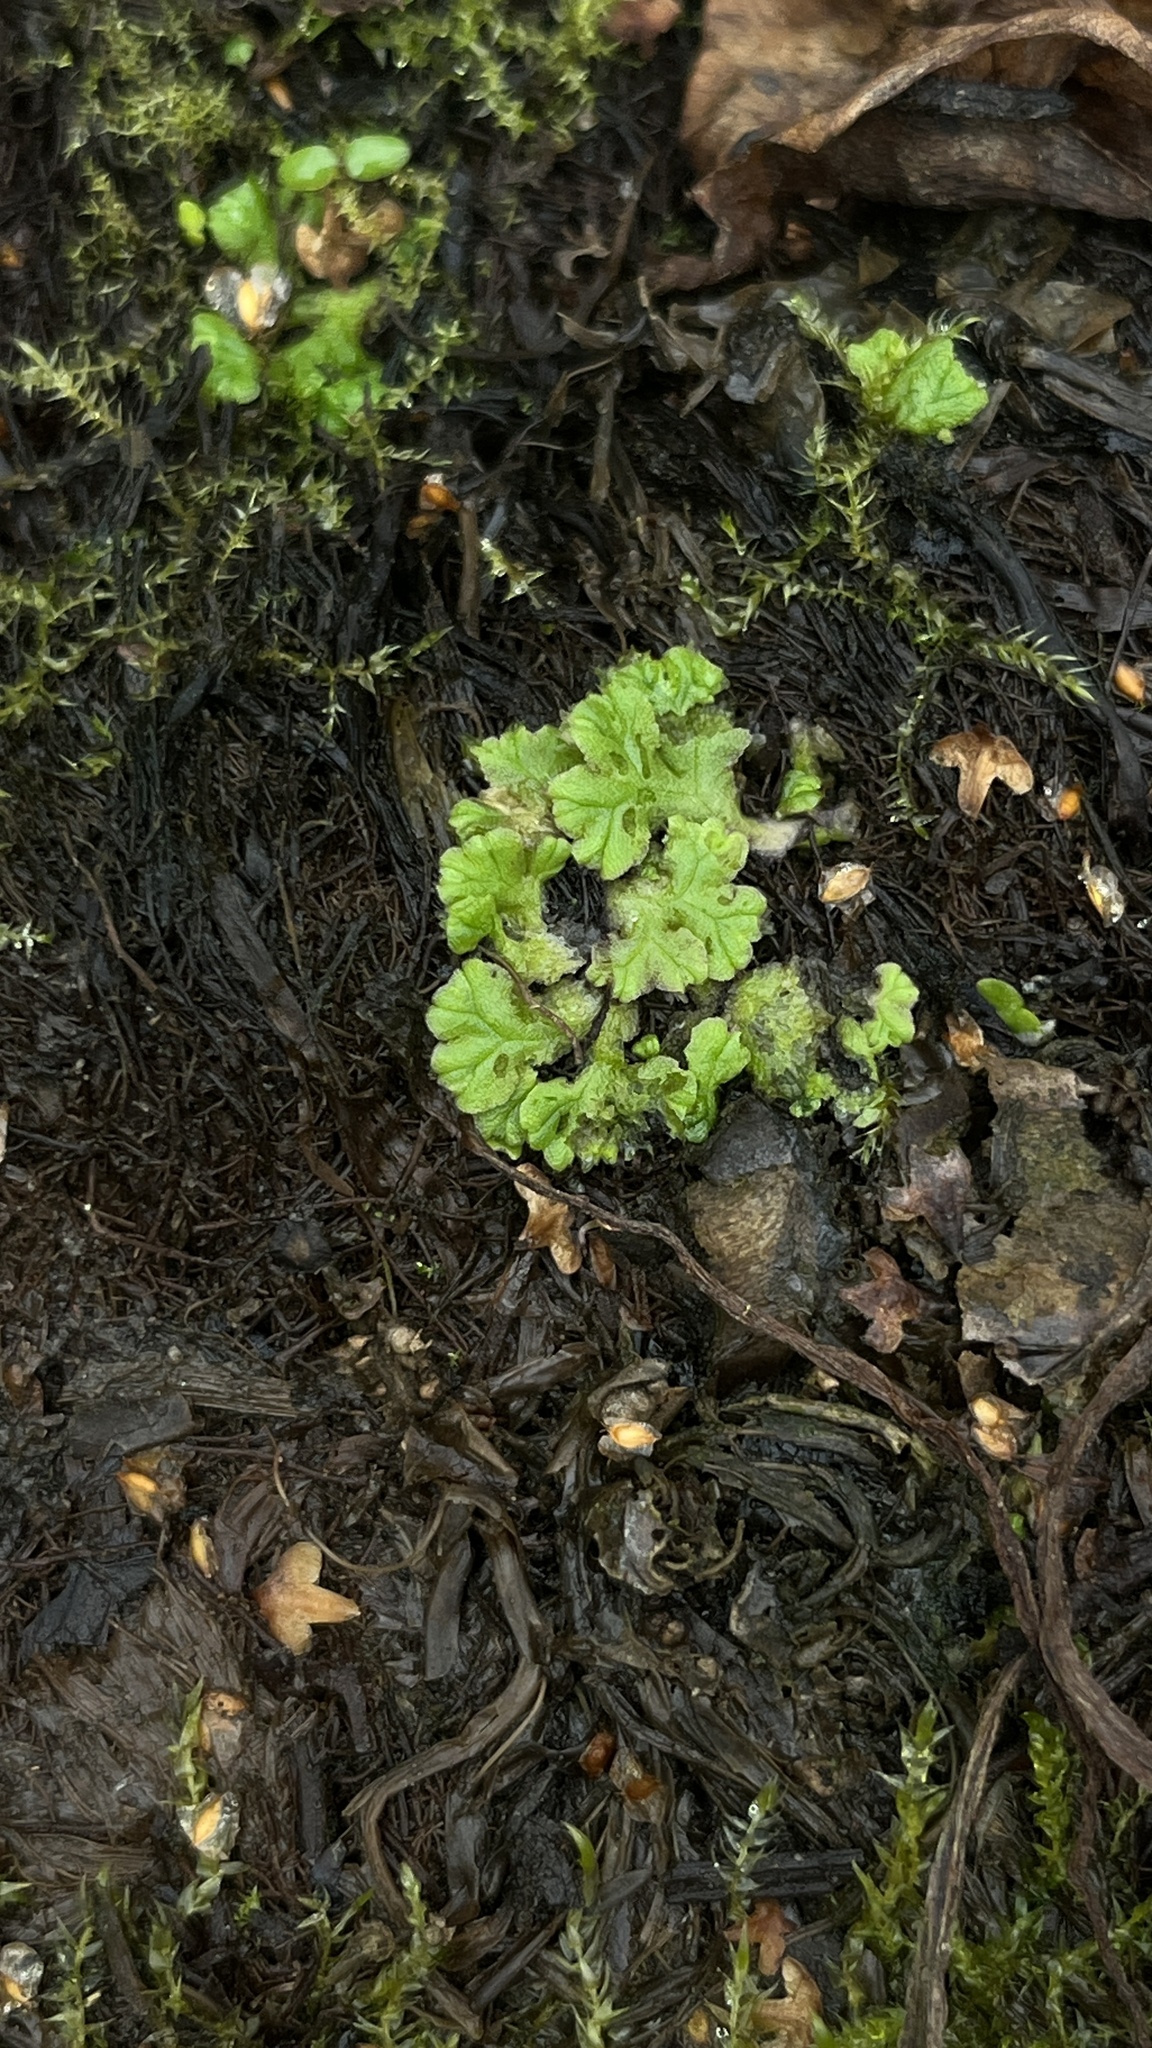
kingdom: Plantae
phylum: Marchantiophyta
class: Marchantiopsida
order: Marchantiales
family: Ricciaceae
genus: Ricciocarpos
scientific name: Ricciocarpos natans
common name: Purple-fringed liverwort
